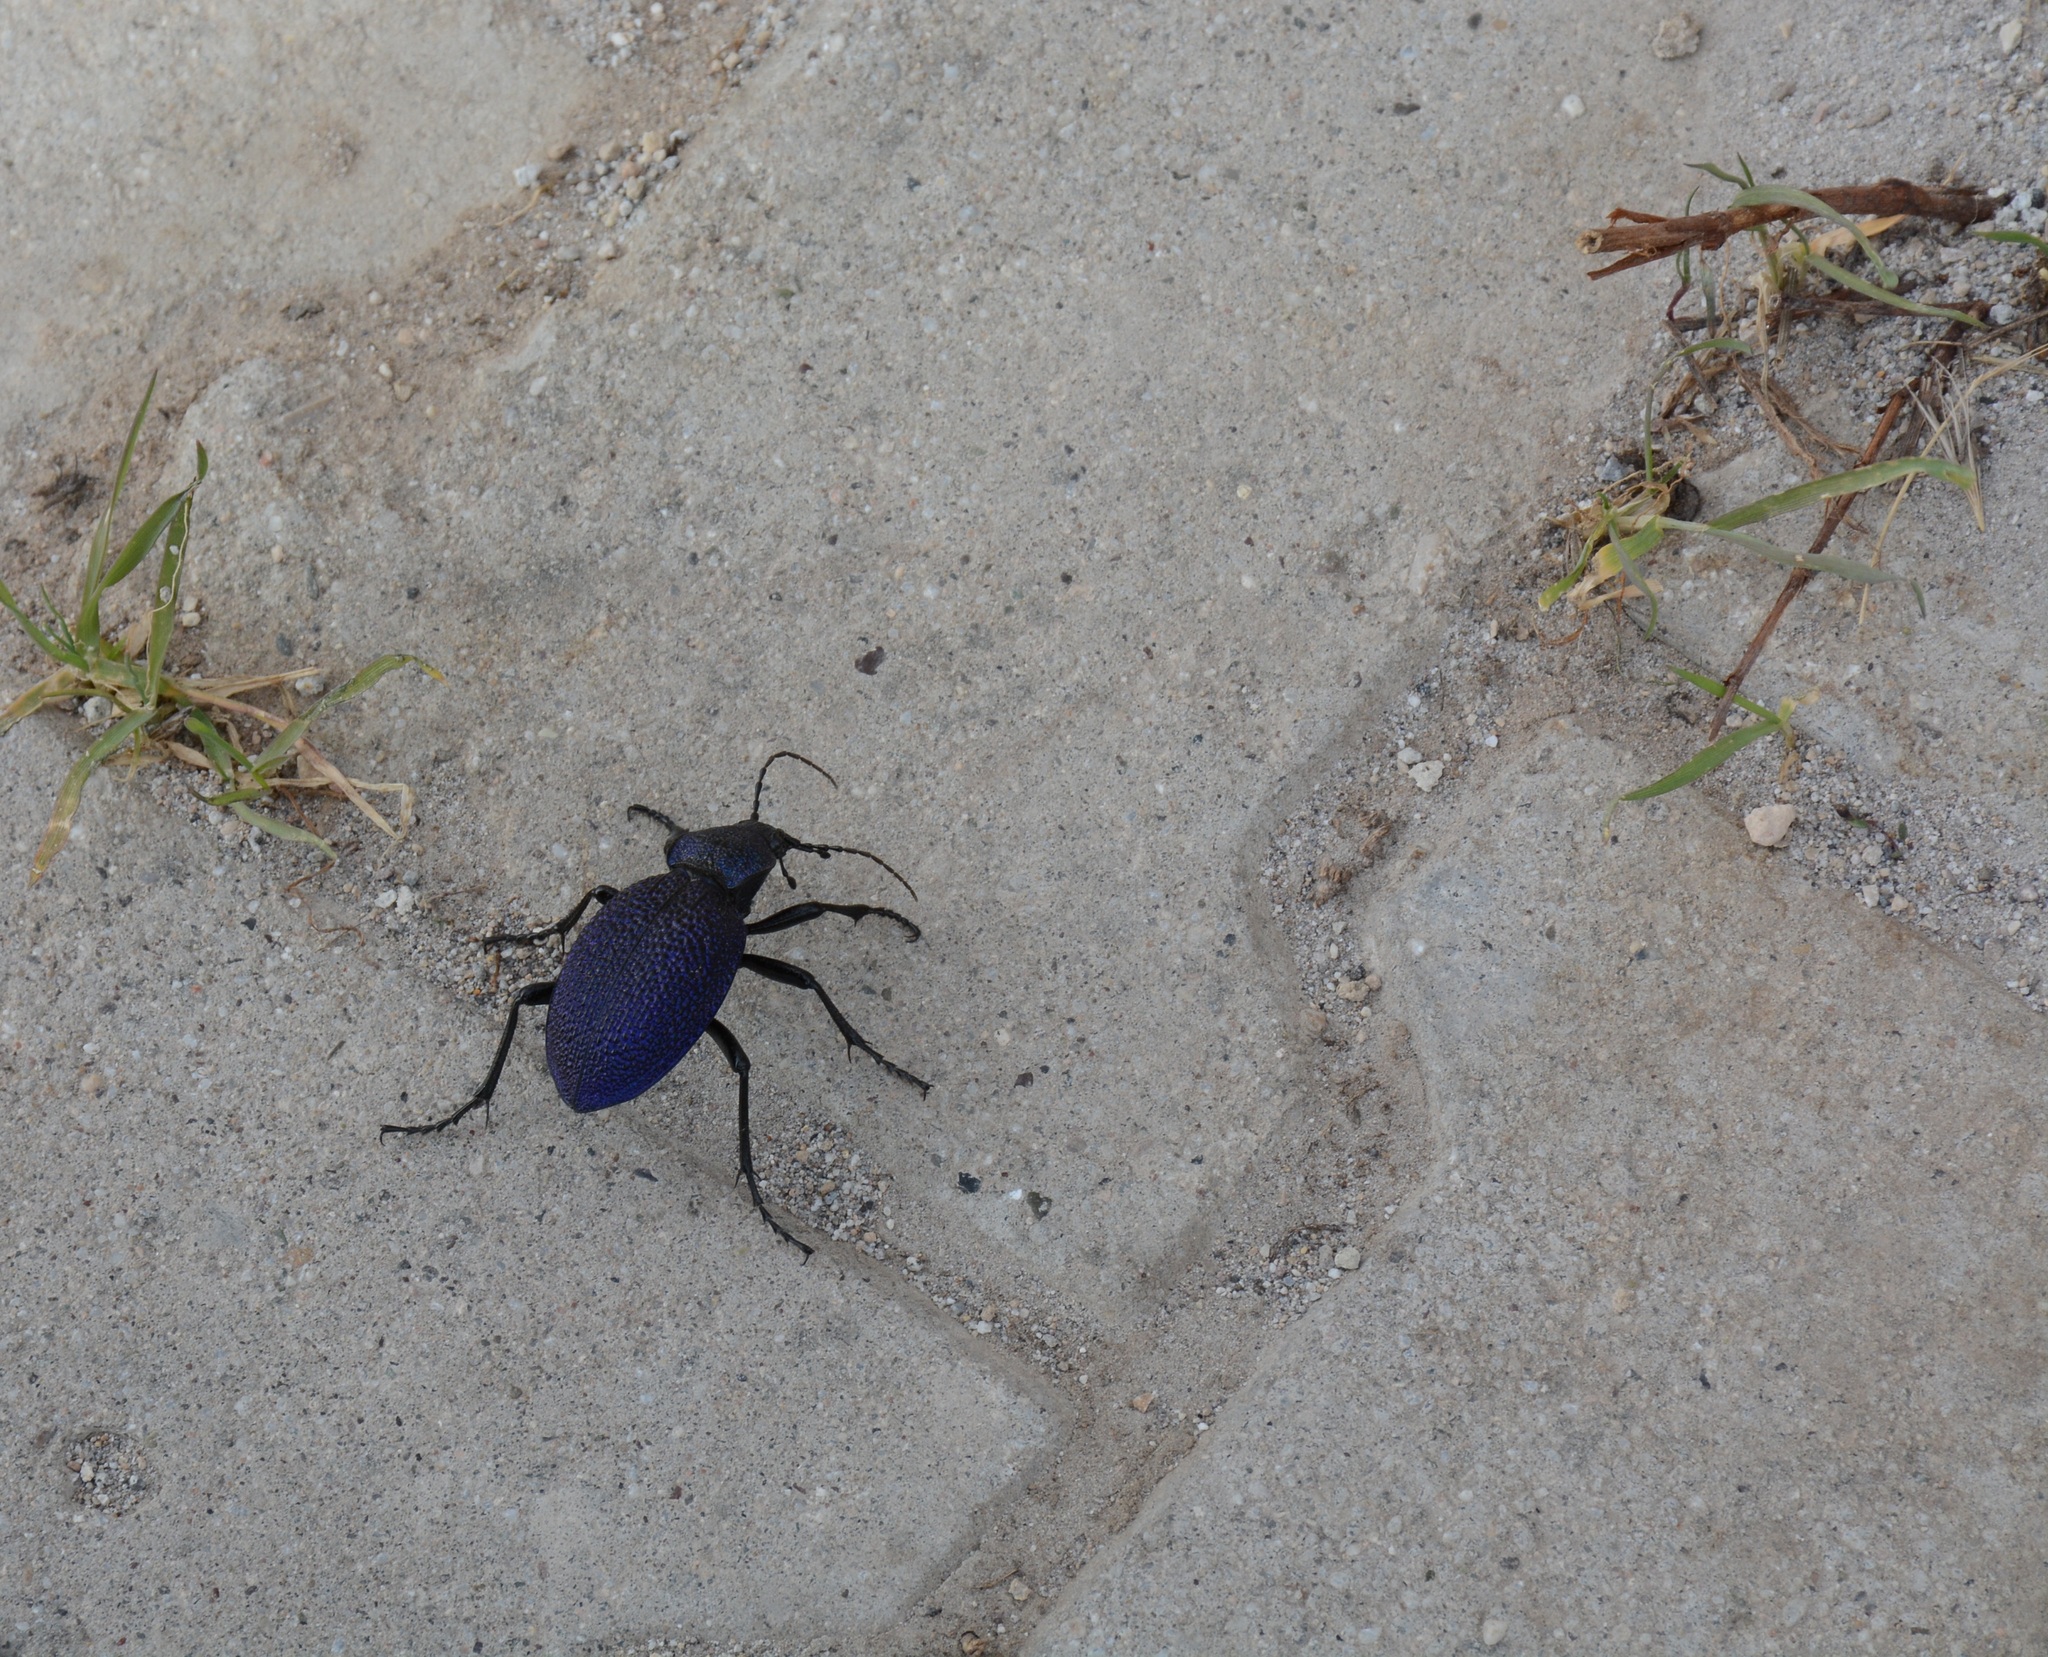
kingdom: Animalia
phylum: Arthropoda
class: Insecta
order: Coleoptera
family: Carabidae
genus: Carabus
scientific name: Carabus scabrosus
